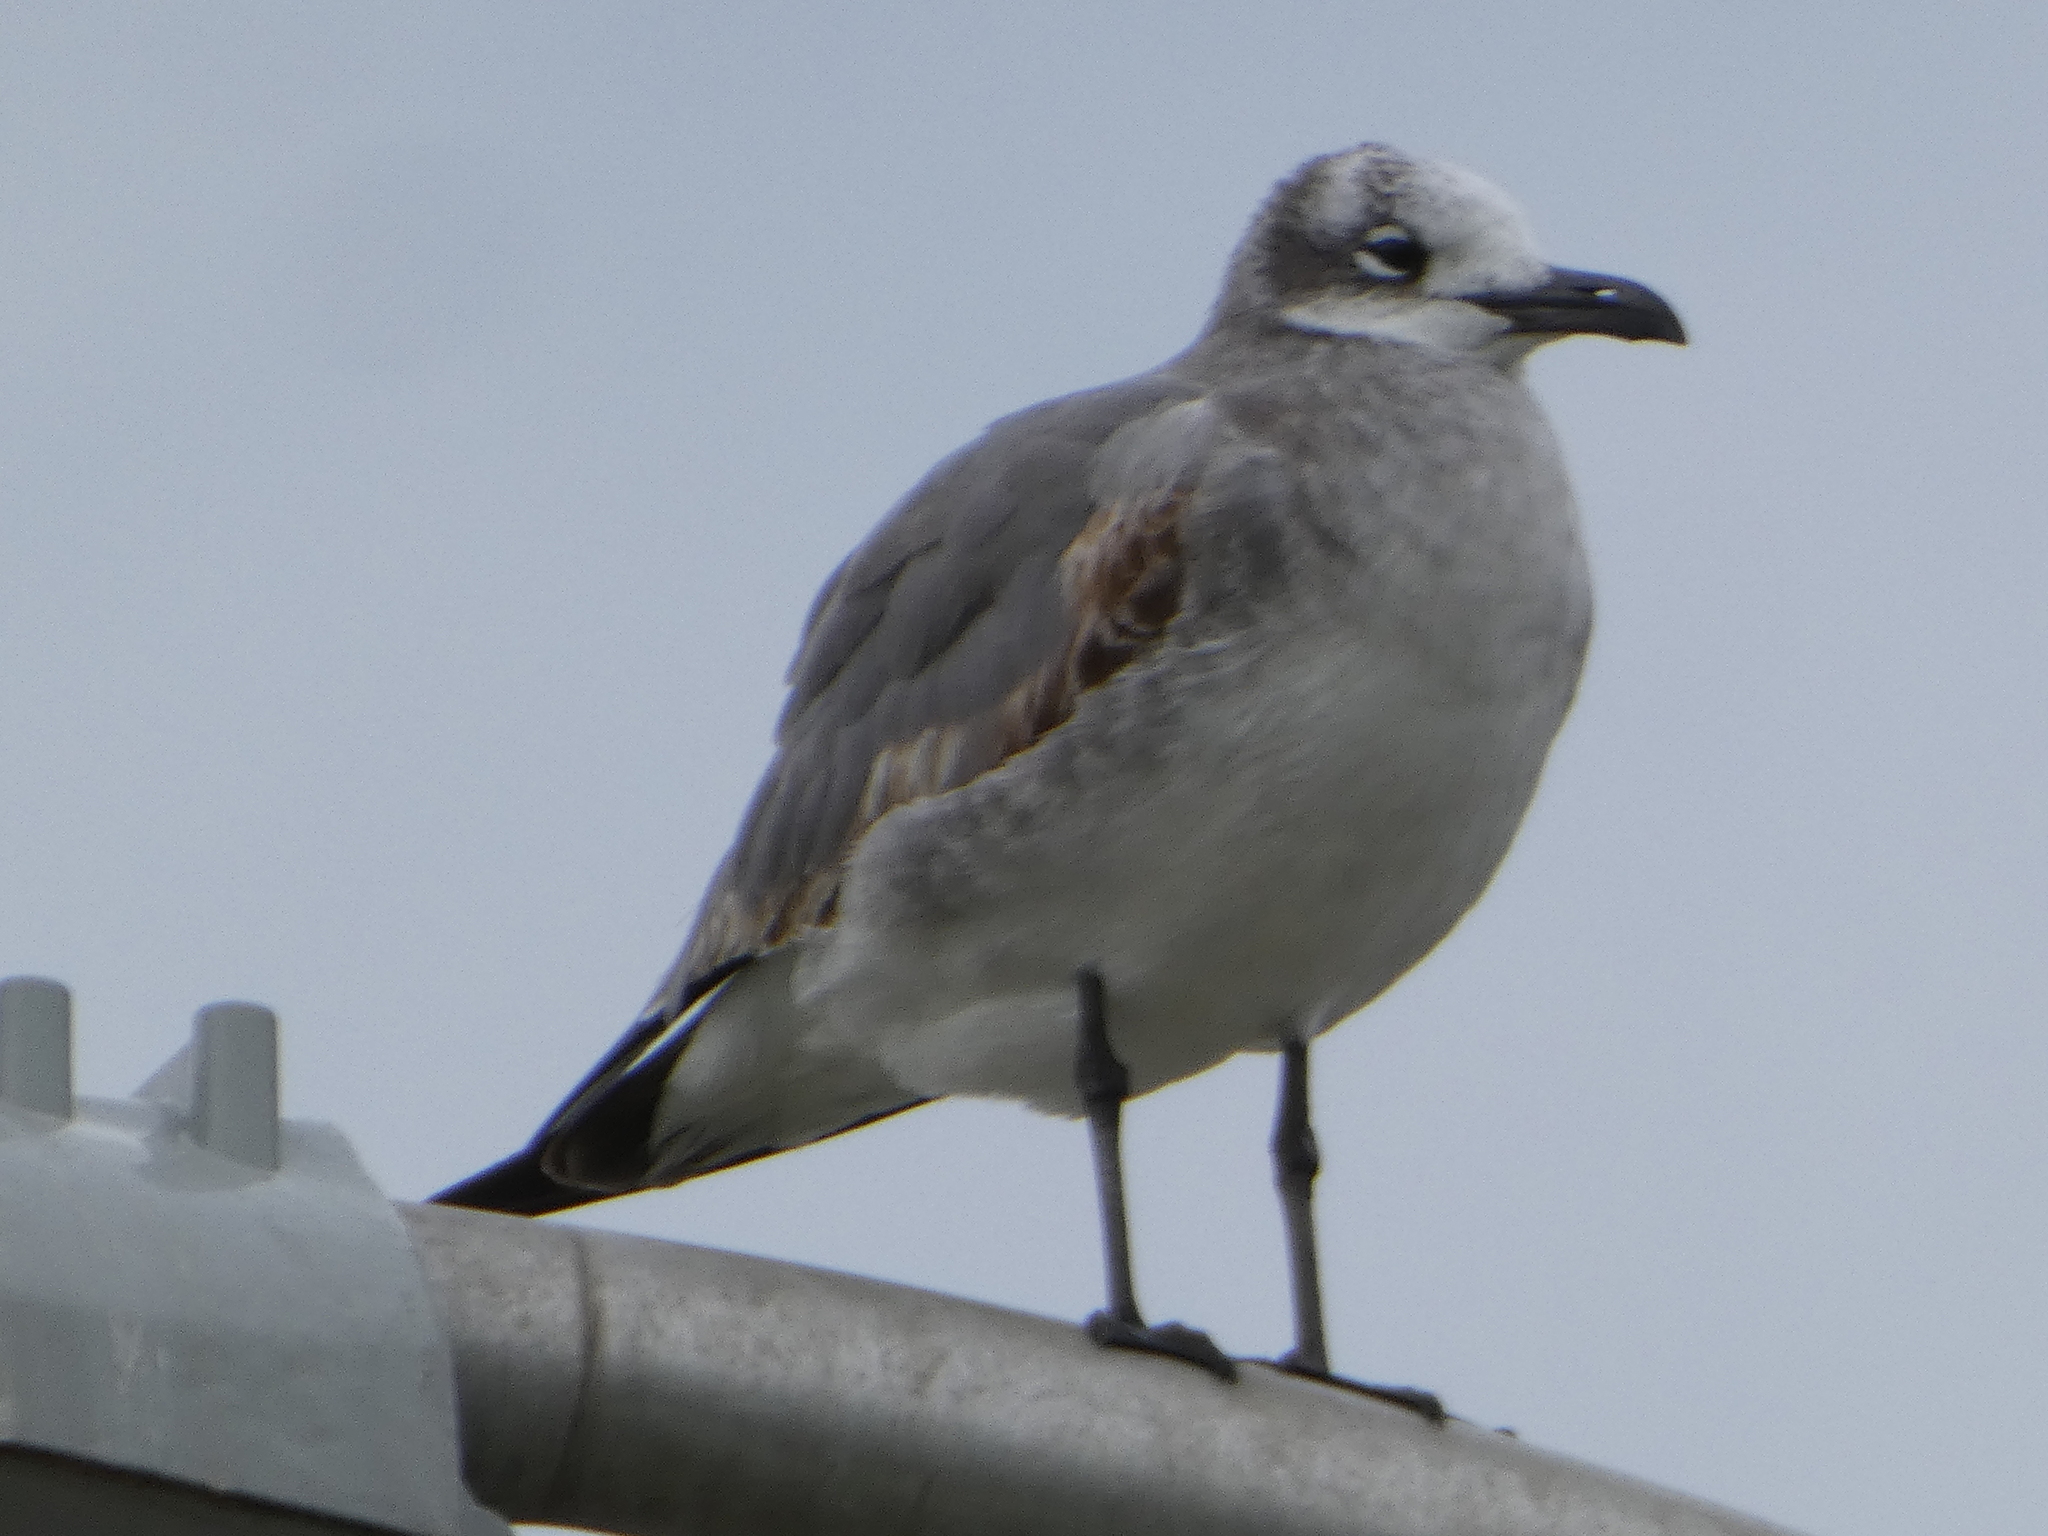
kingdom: Animalia
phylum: Chordata
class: Aves
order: Charadriiformes
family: Laridae
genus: Leucophaeus
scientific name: Leucophaeus atricilla
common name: Laughing gull
